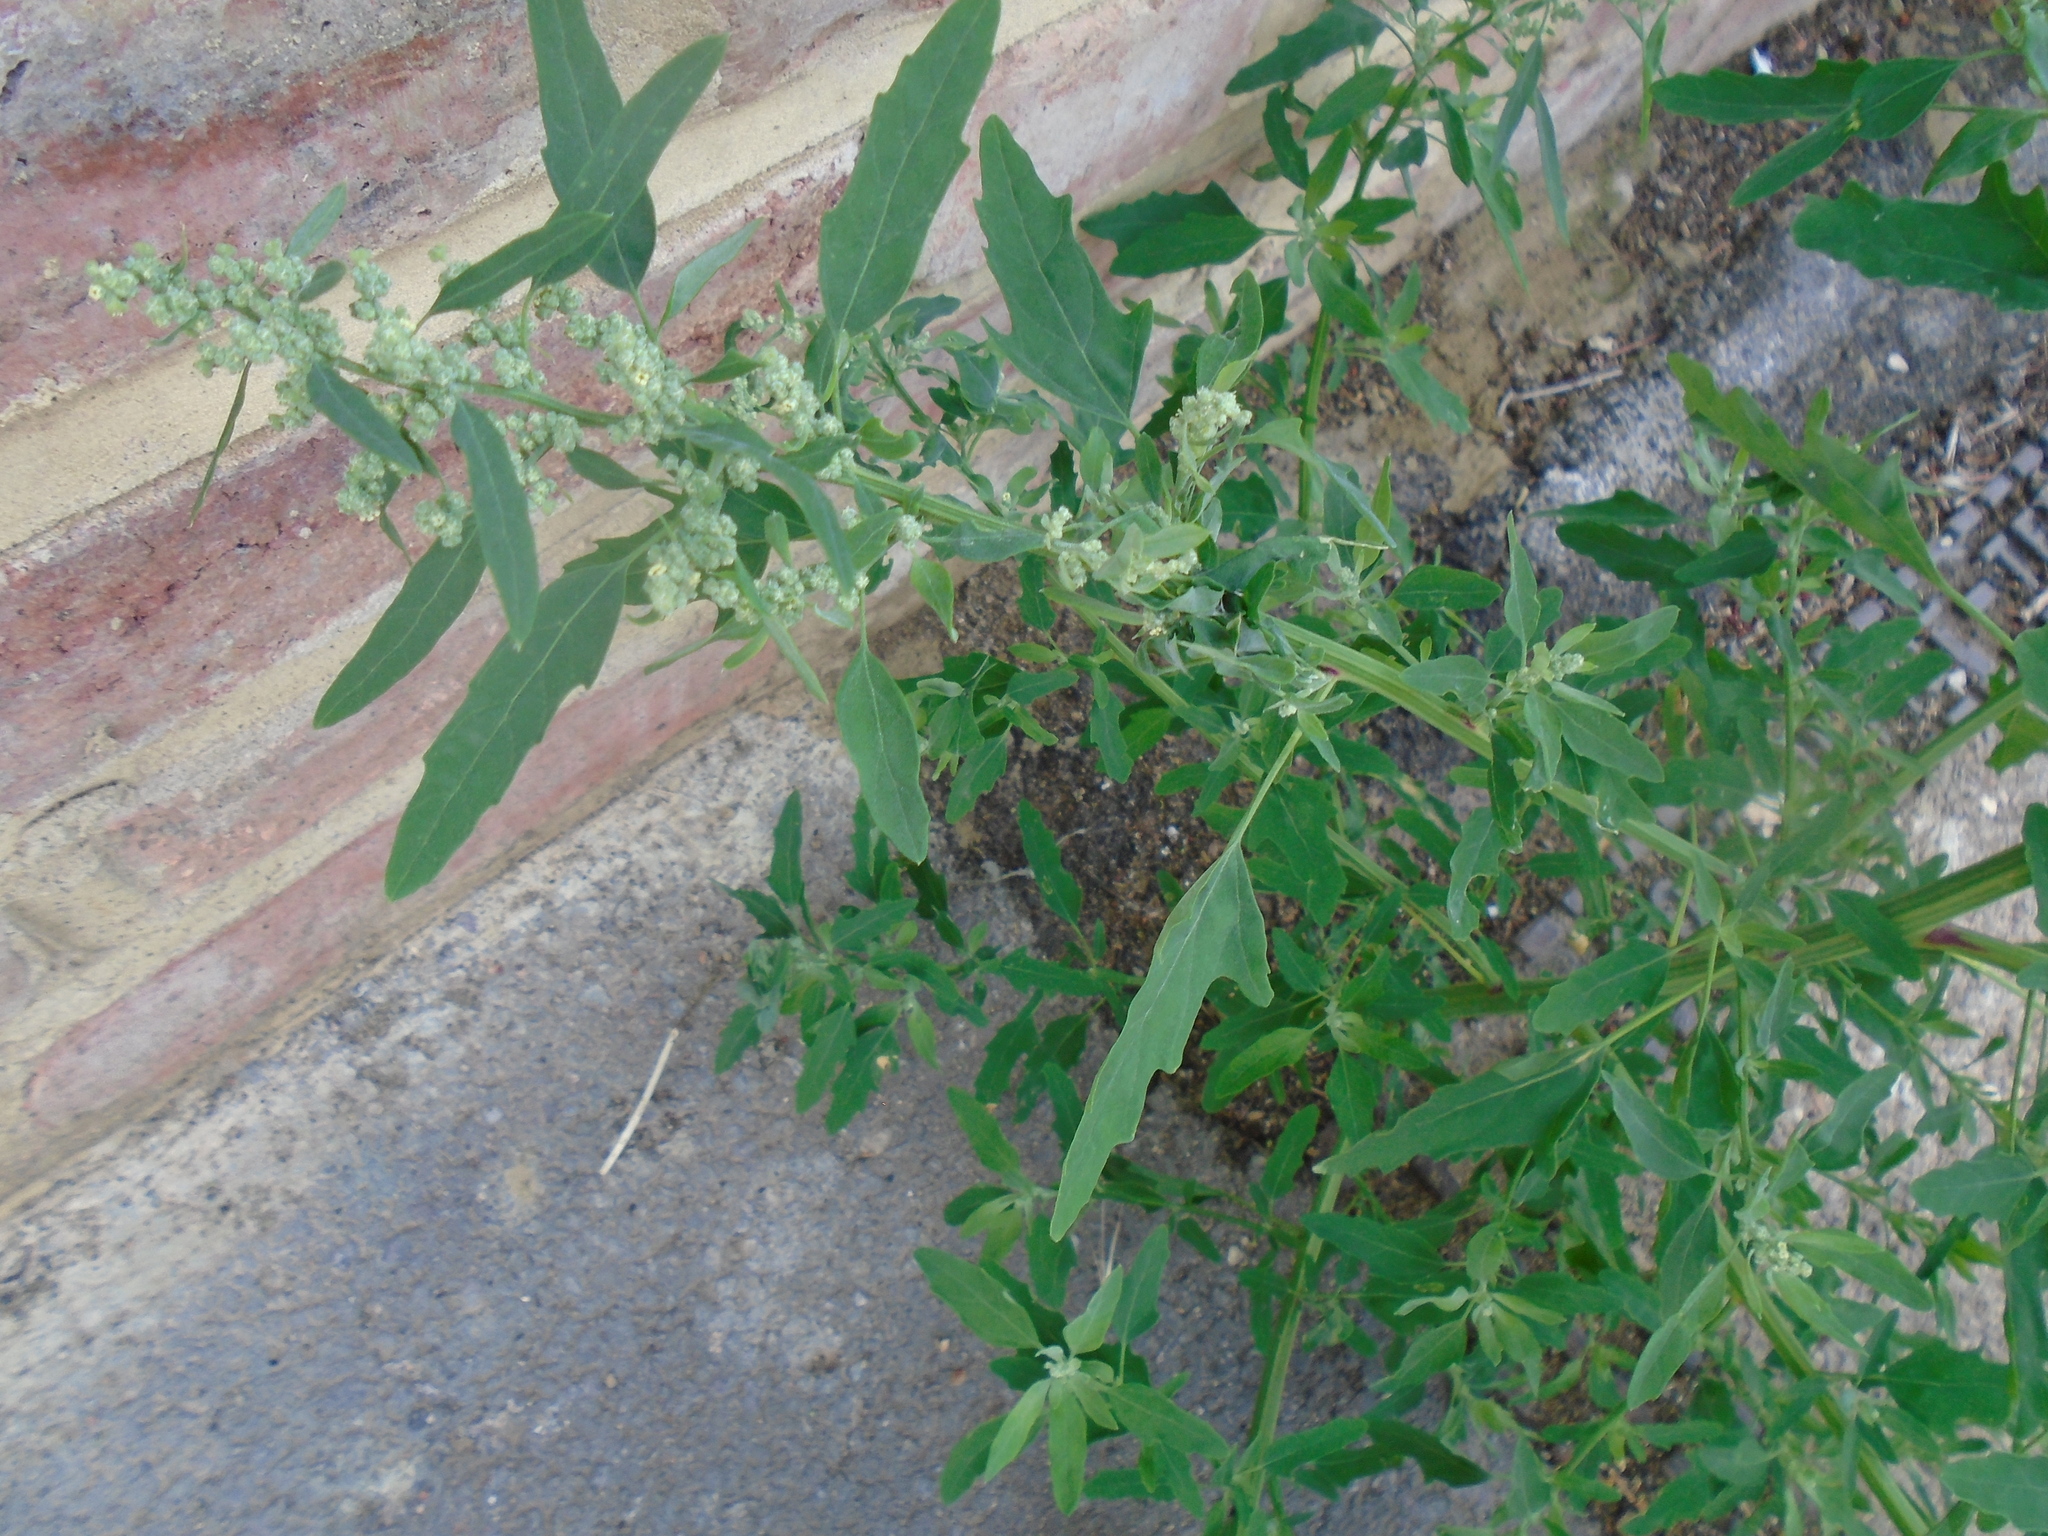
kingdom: Plantae
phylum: Tracheophyta
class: Magnoliopsida
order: Caryophyllales
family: Amaranthaceae
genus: Chenopodium
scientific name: Chenopodium ficifolium
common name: Fig-leaved goosefoot
